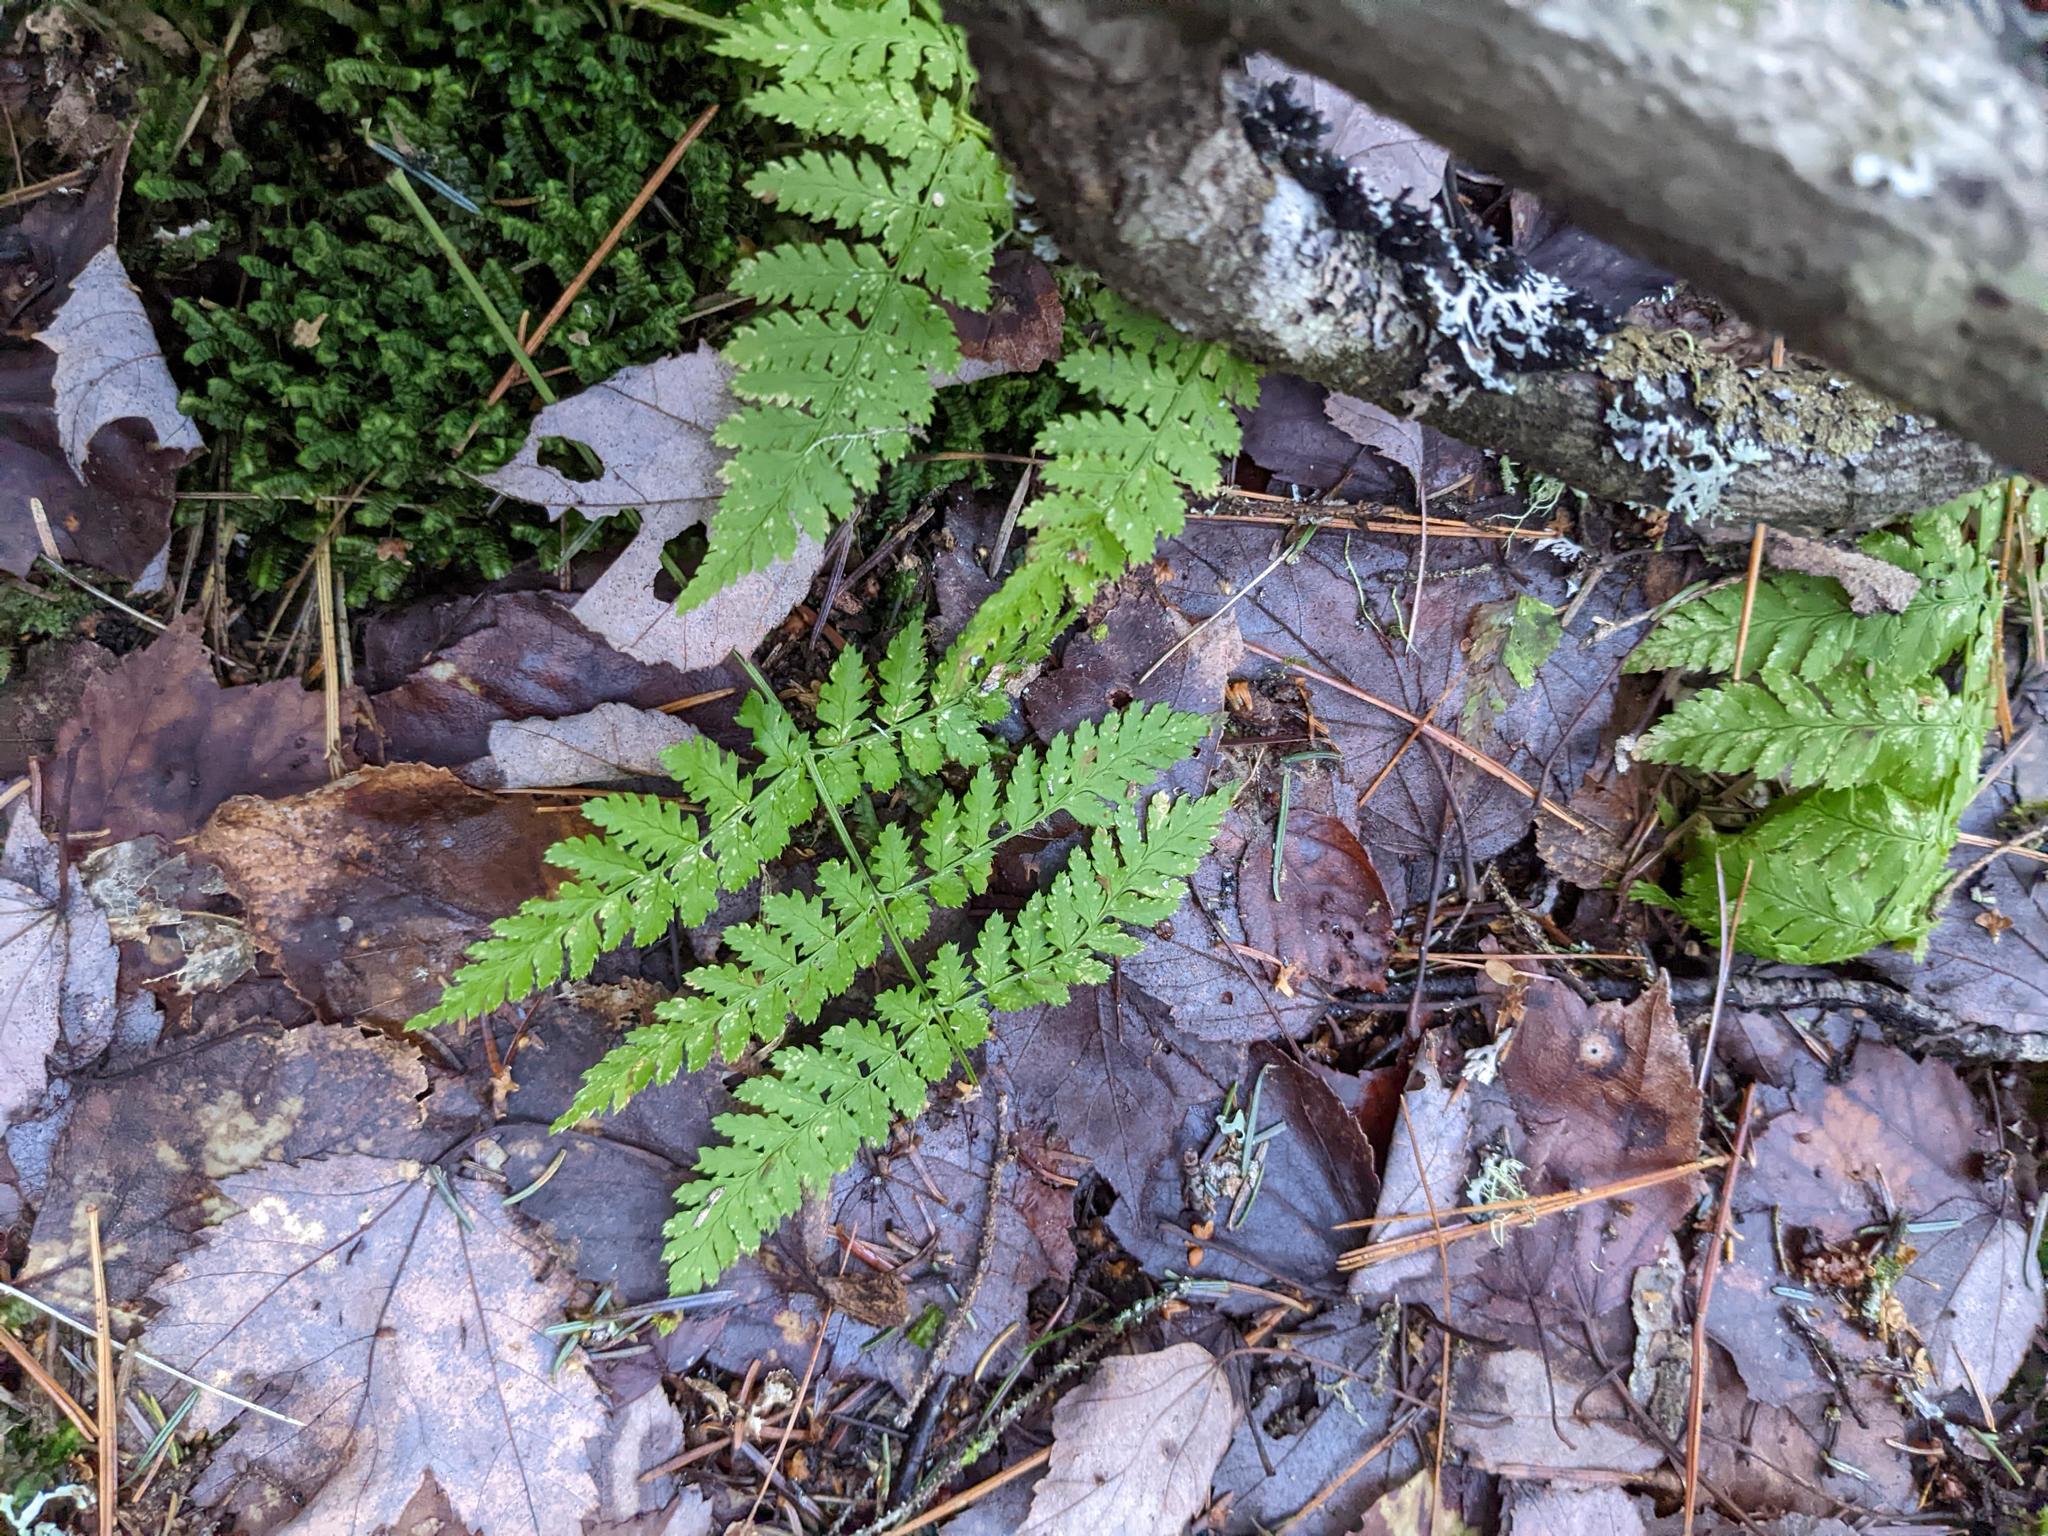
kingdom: Plantae
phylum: Tracheophyta
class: Polypodiopsida
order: Polypodiales
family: Dryopteridaceae
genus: Dryopteris
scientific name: Dryopteris intermedia
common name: Evergreen wood fern
